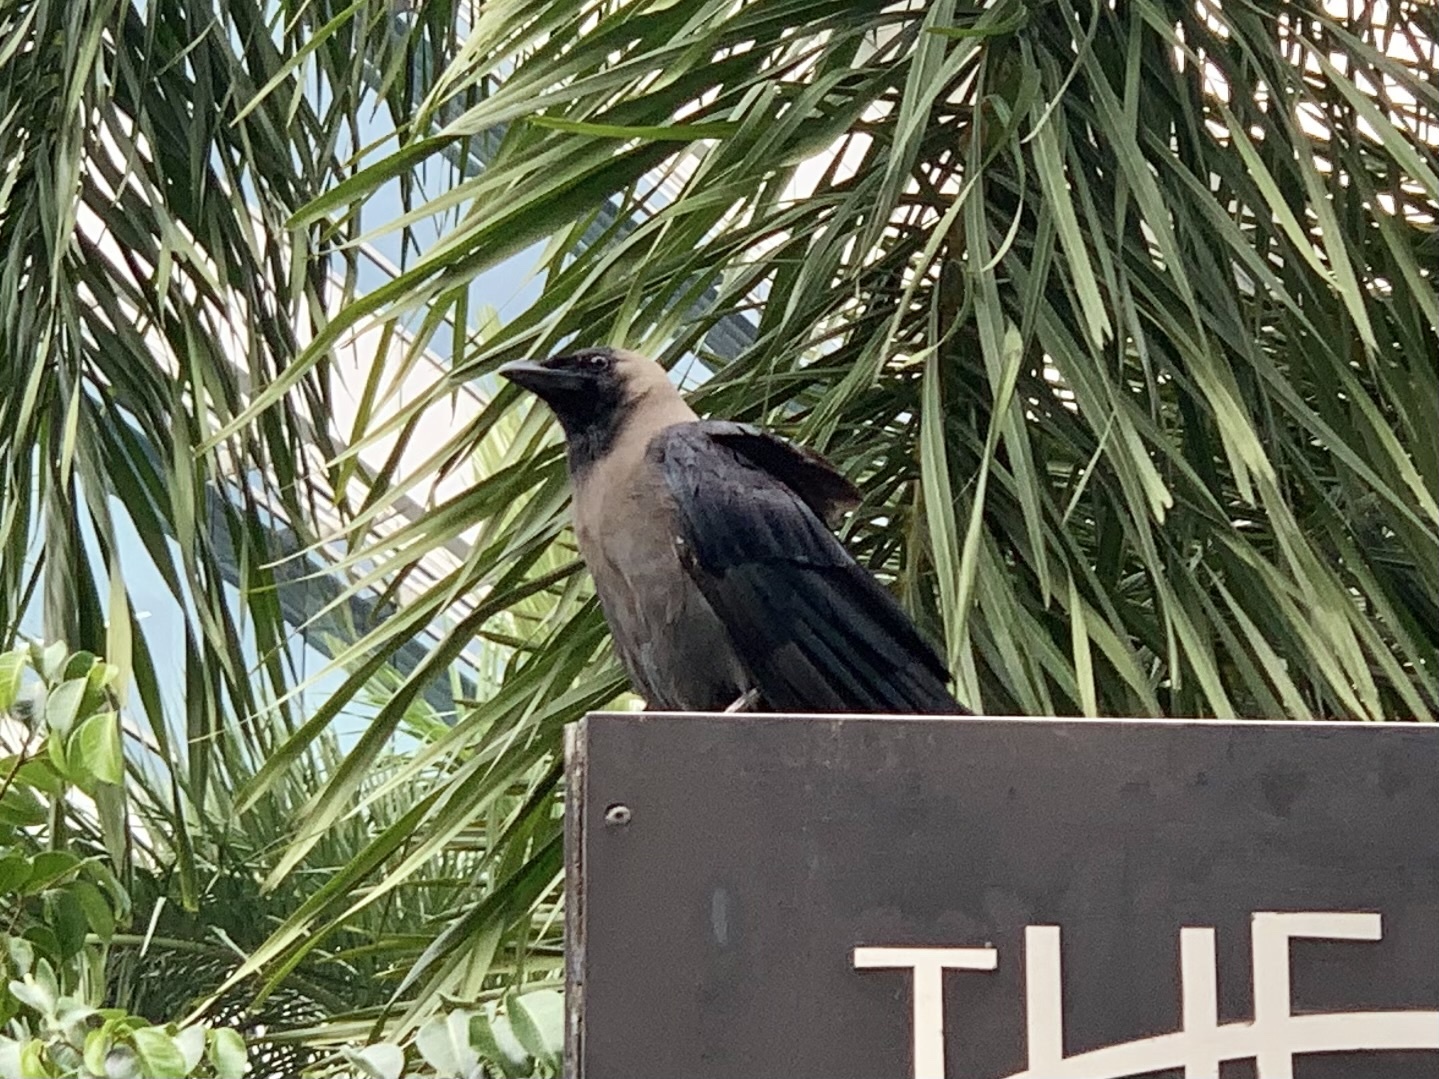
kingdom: Animalia
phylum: Chordata
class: Aves
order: Passeriformes
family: Corvidae
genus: Corvus
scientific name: Corvus splendens
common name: House crow
